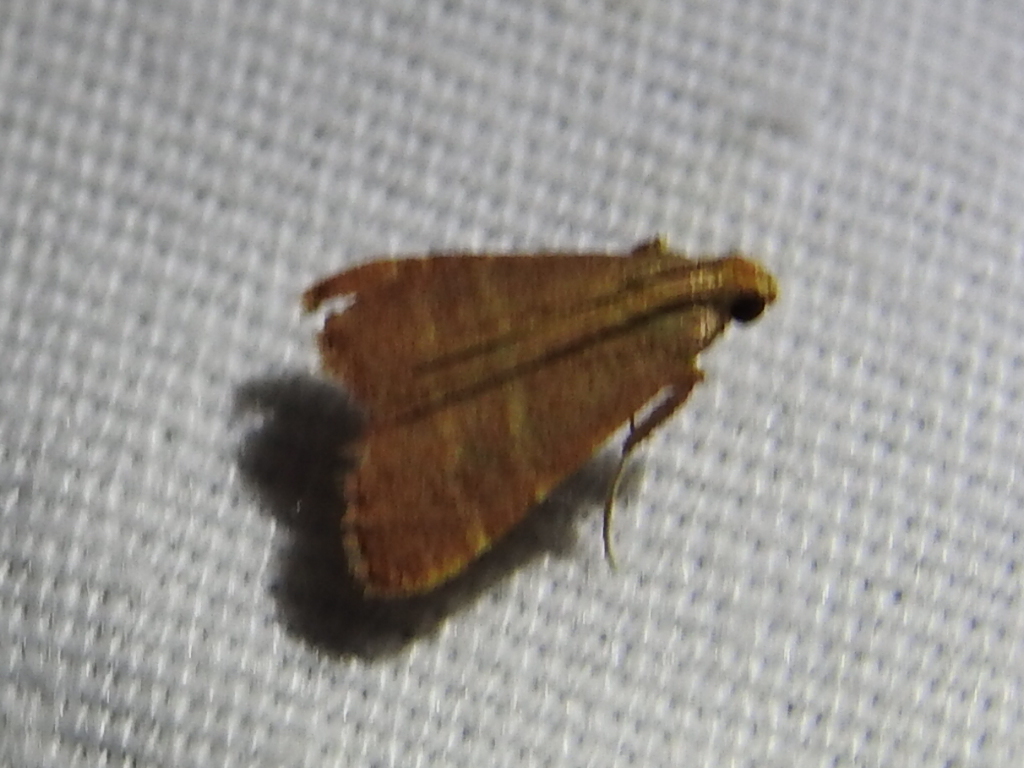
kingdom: Animalia
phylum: Arthropoda
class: Insecta
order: Lepidoptera
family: Pyralidae
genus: Arta
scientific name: Arta olivalis
